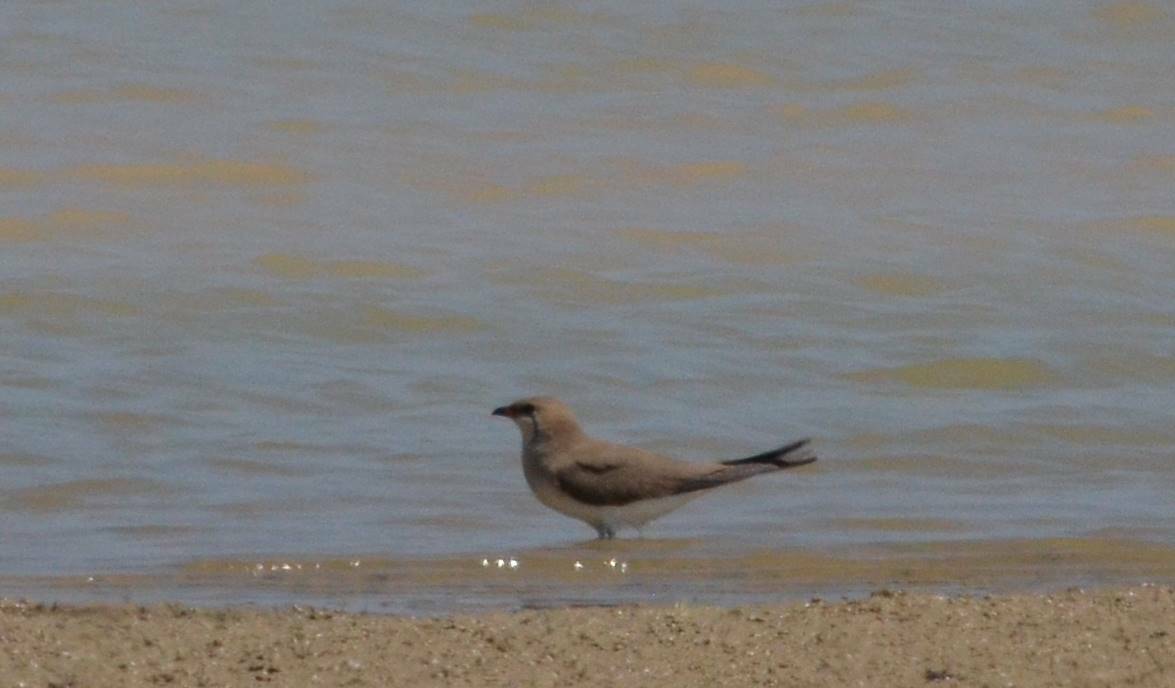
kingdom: Animalia
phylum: Chordata
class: Aves
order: Charadriiformes
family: Glareolidae
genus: Glareola
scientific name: Glareola pratincola
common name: Collared pratincole
